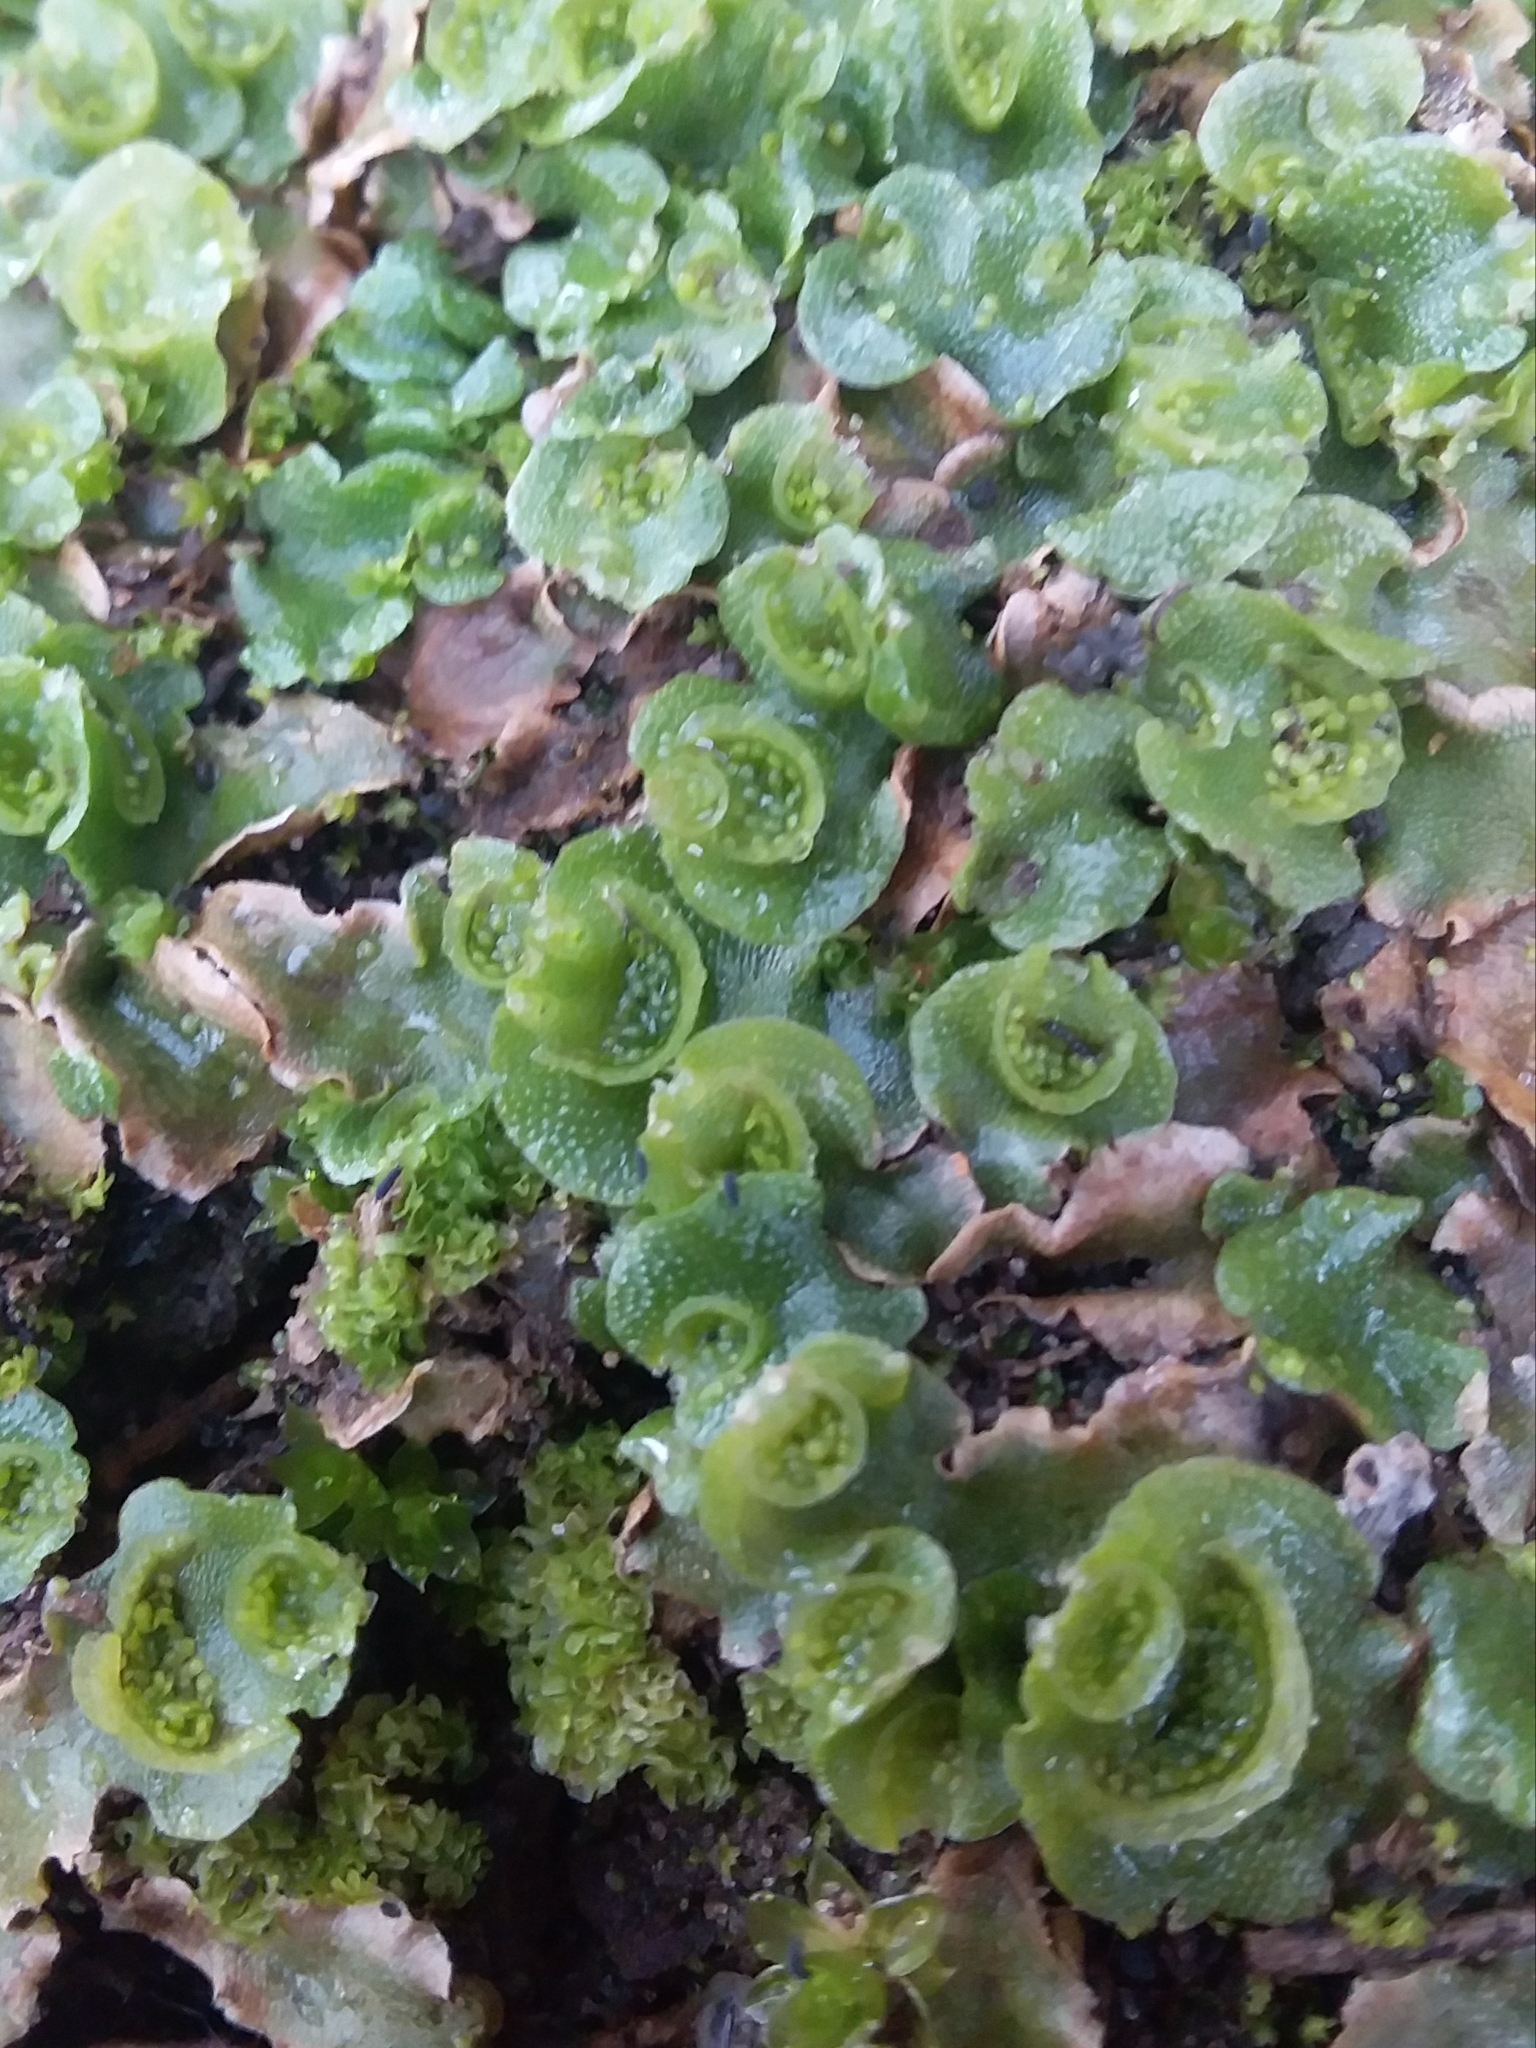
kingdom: Plantae
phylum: Marchantiophyta
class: Marchantiopsida
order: Lunulariales
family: Lunulariaceae
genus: Lunularia
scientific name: Lunularia cruciata
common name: Crescent-cup liverwort
